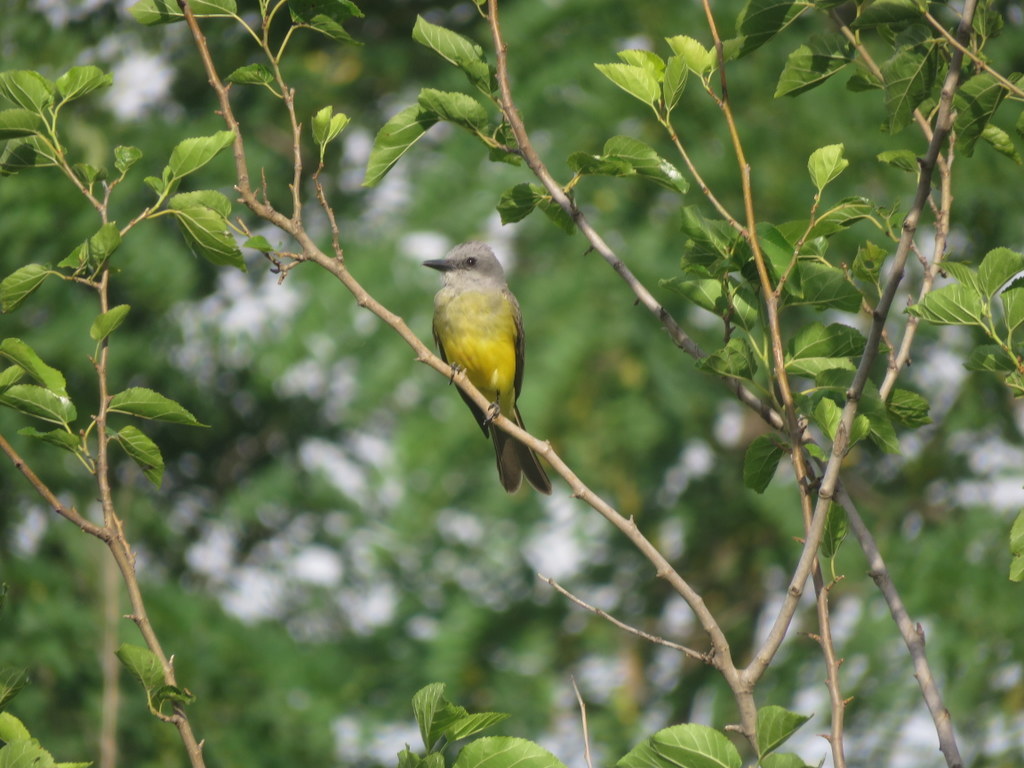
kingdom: Animalia
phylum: Chordata
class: Aves
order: Passeriformes
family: Tyrannidae
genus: Tyrannus
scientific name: Tyrannus melancholicus
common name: Tropical kingbird
